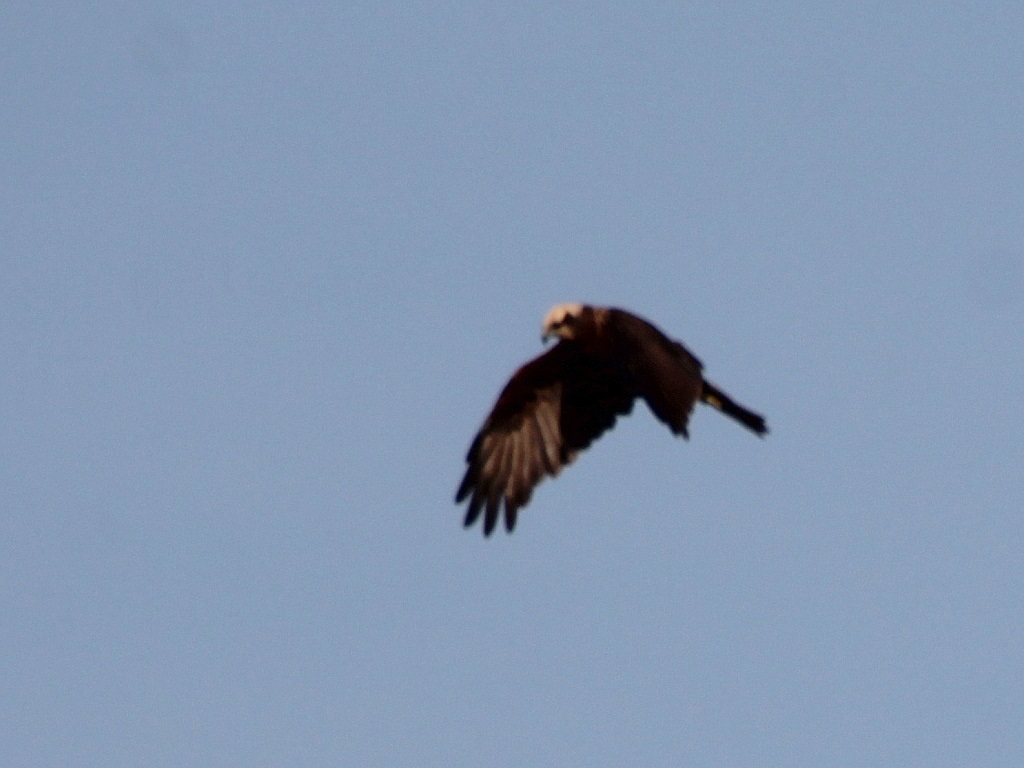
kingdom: Animalia
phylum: Chordata
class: Aves
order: Accipitriformes
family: Accipitridae
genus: Circus
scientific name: Circus aeruginosus
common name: Western marsh harrier
